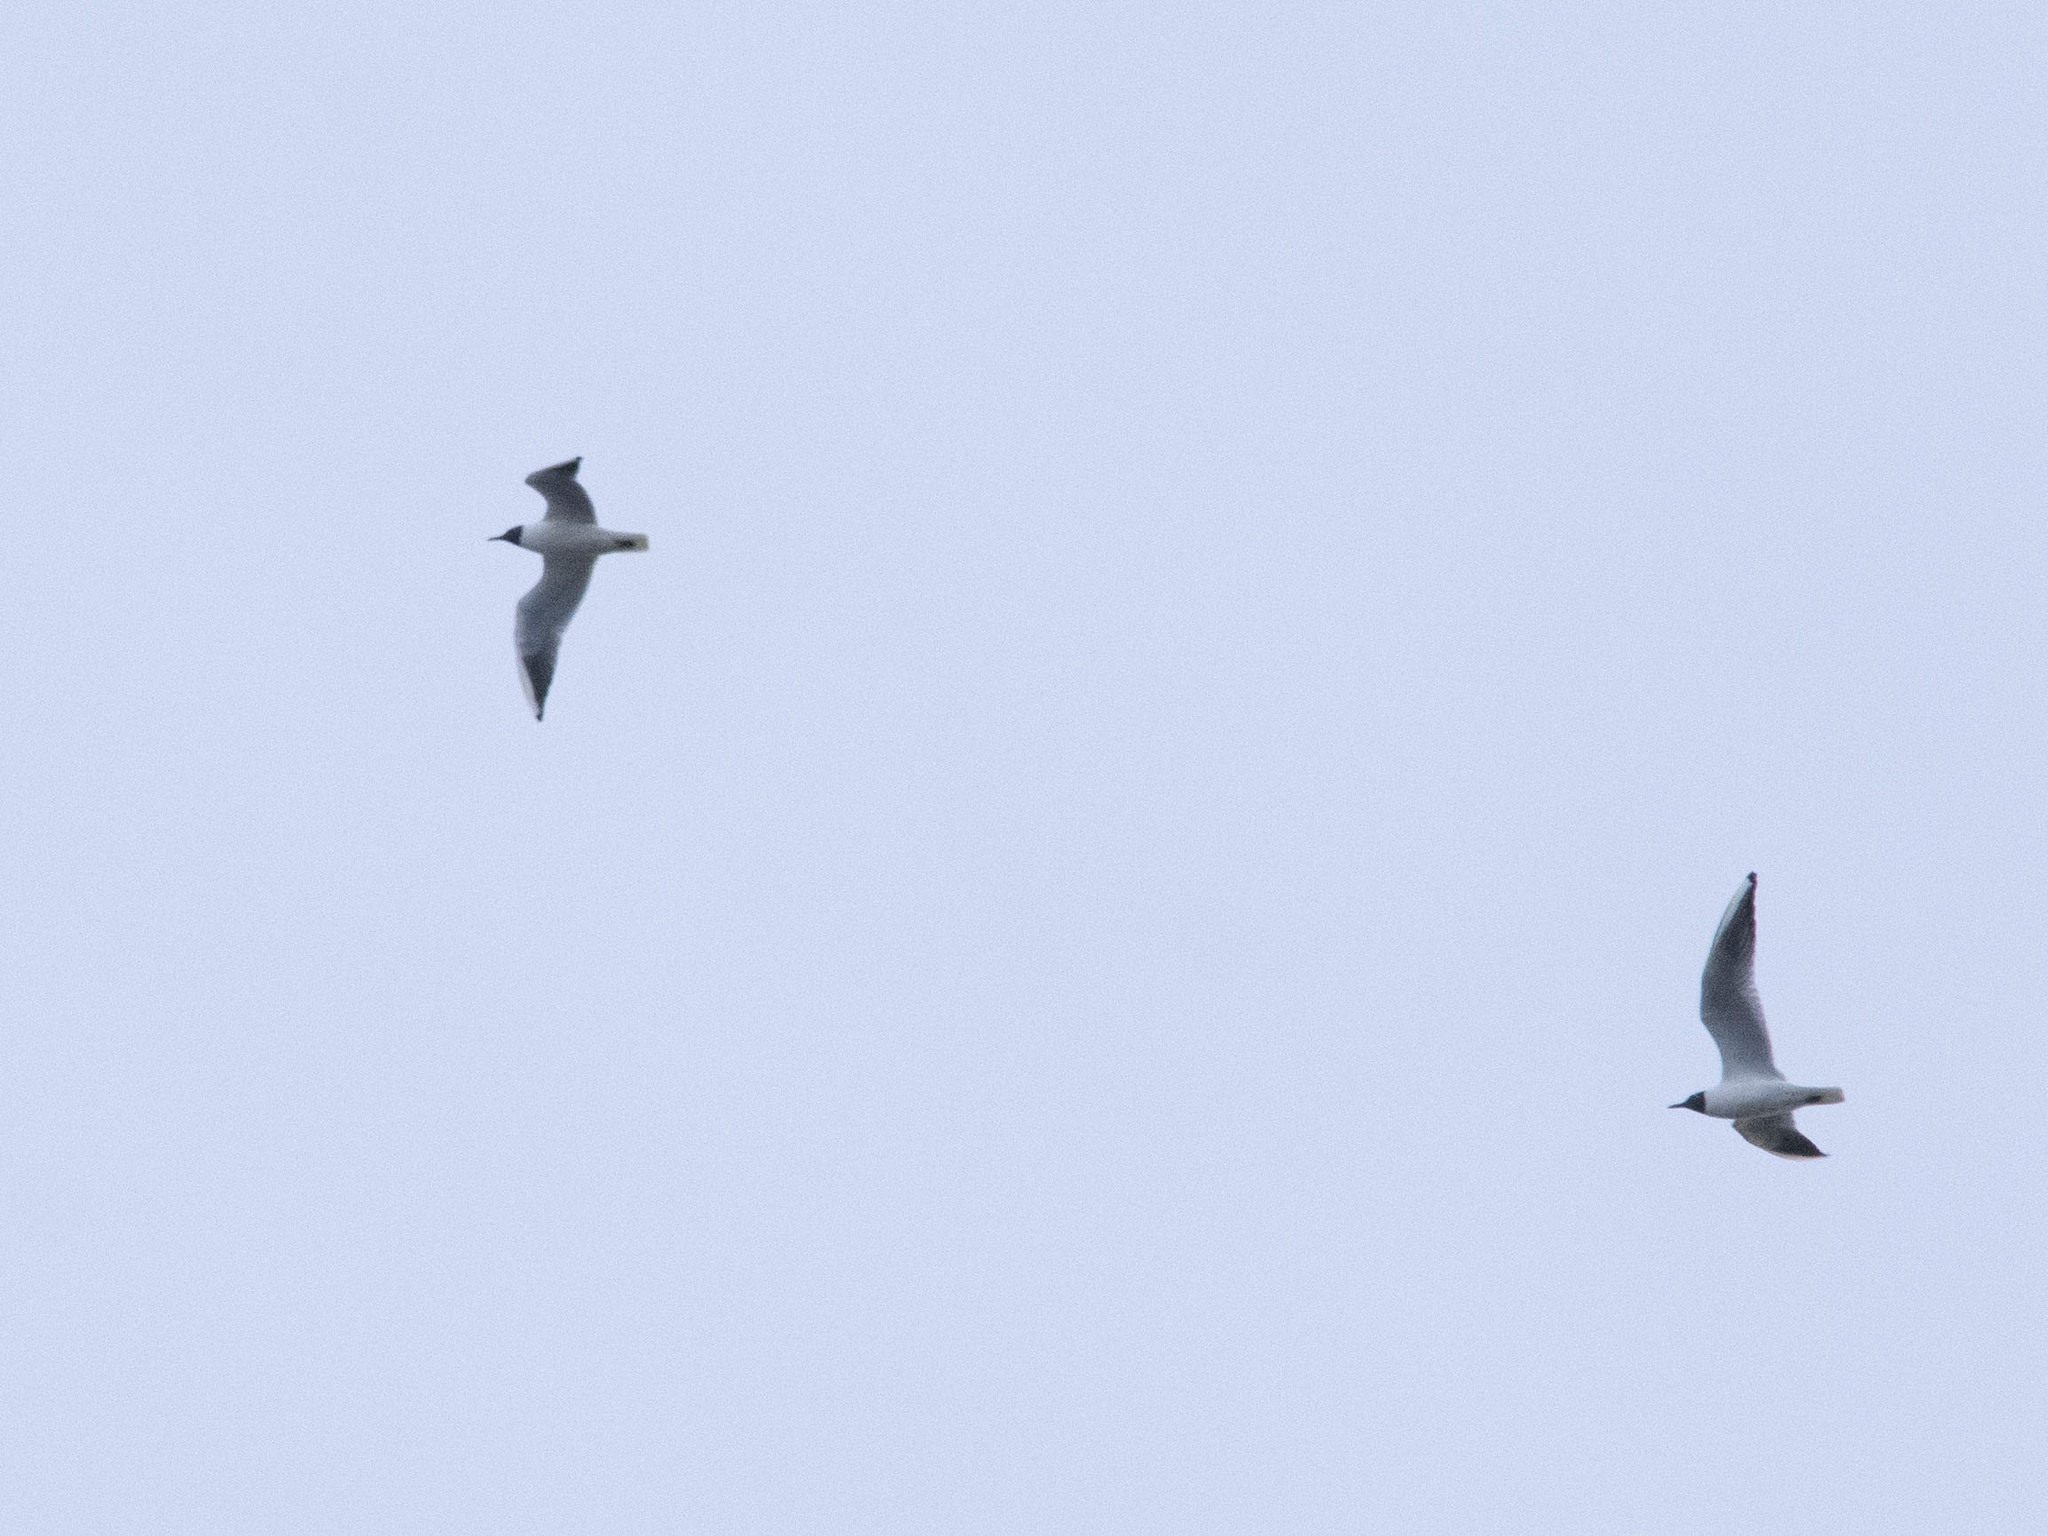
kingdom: Animalia
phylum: Chordata
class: Aves
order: Charadriiformes
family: Laridae
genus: Chroicocephalus
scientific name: Chroicocephalus ridibundus
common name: Black-headed gull
